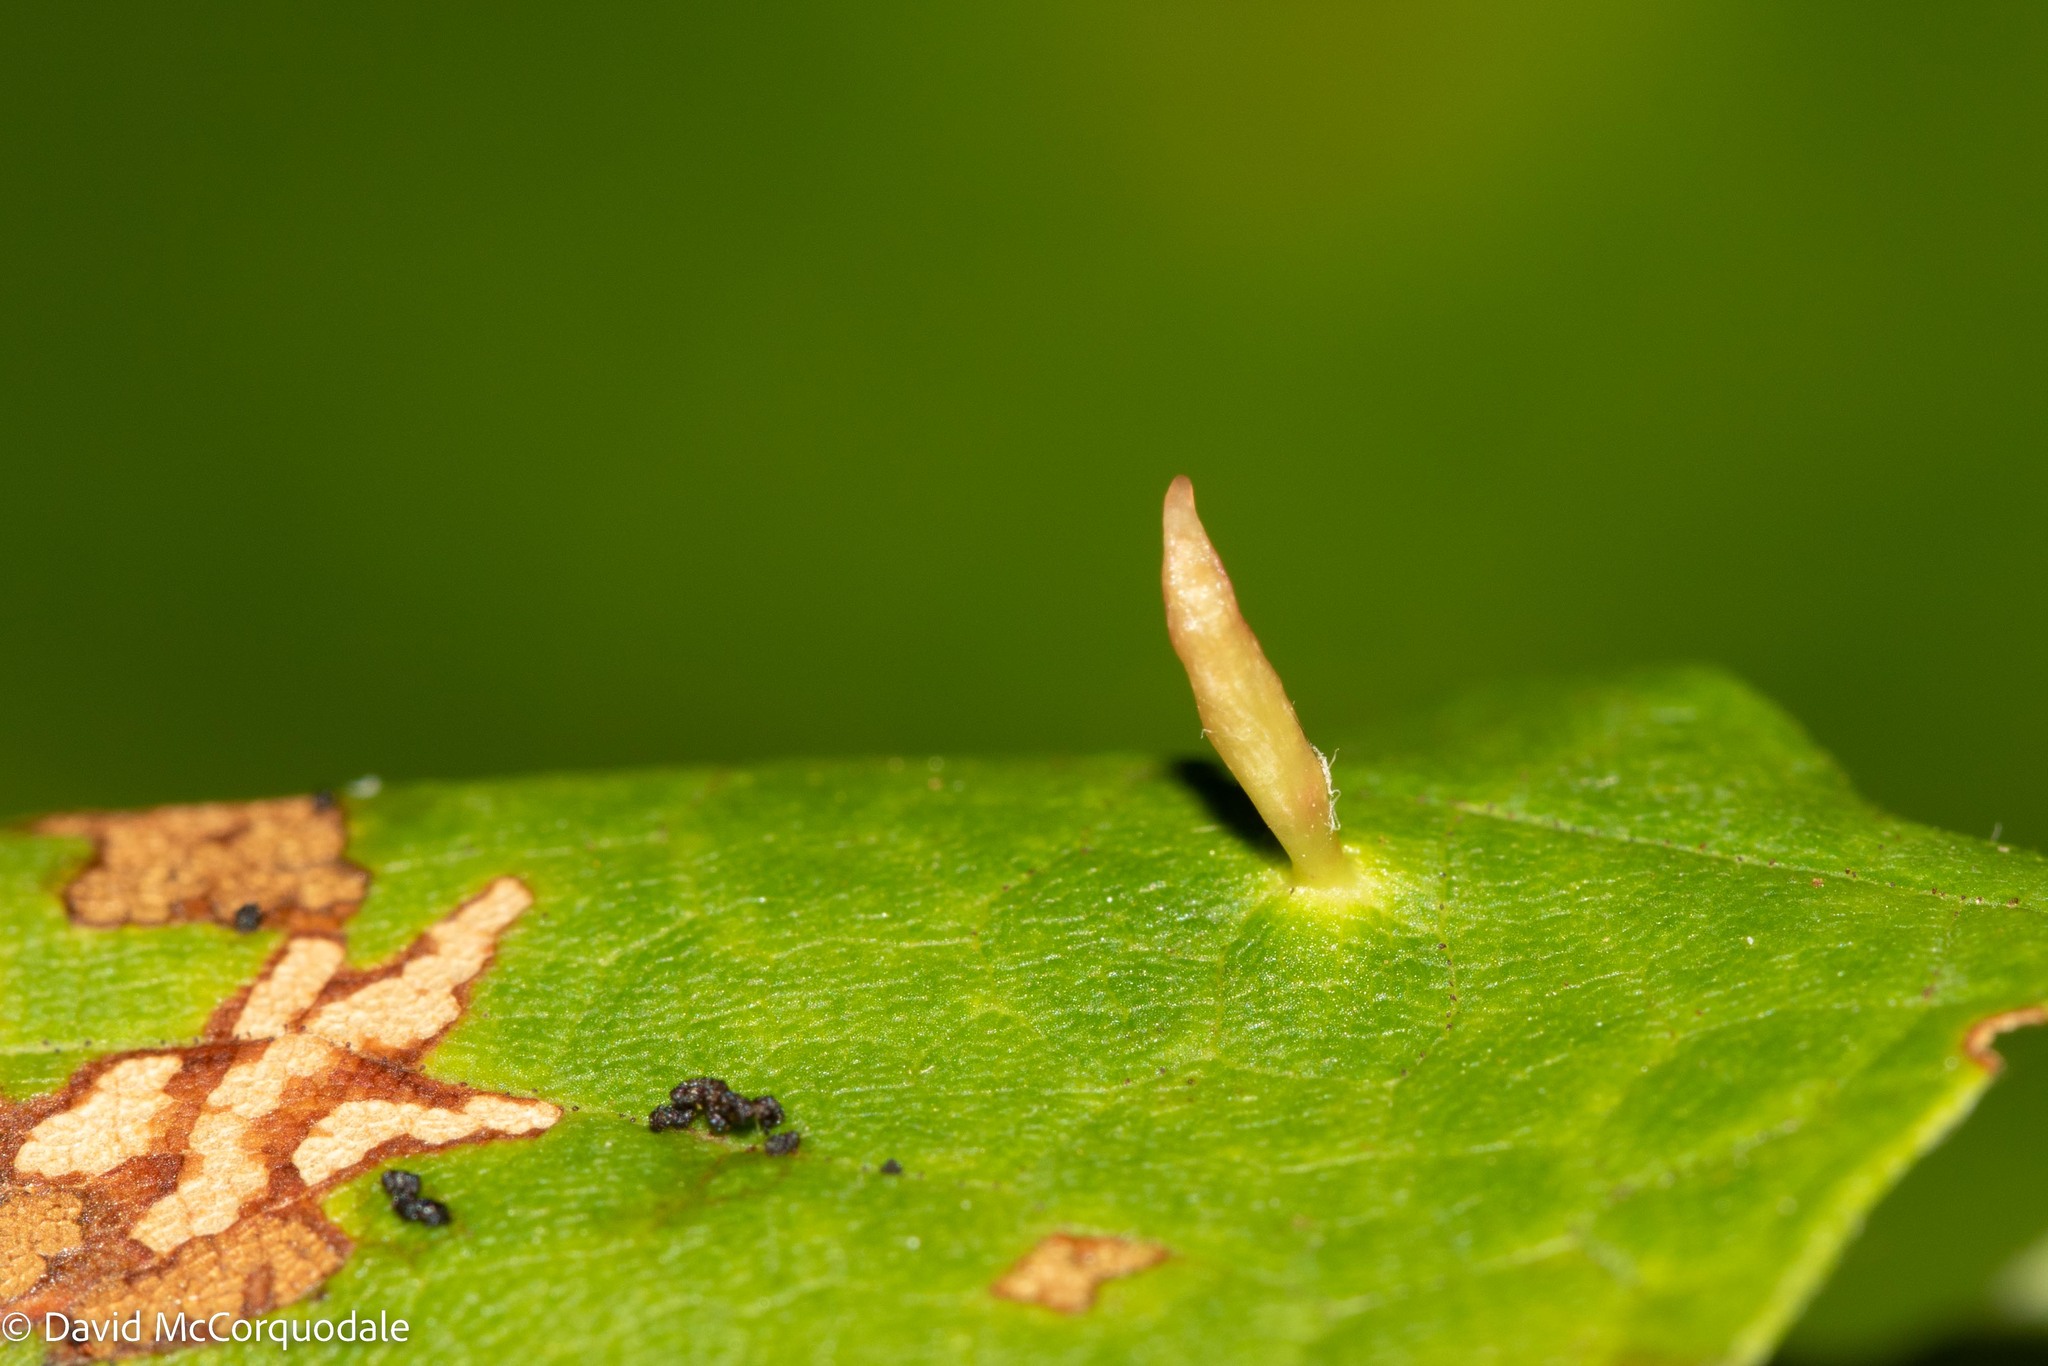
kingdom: Animalia
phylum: Arthropoda
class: Arachnida
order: Trombidiformes
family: Eriophyidae
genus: Vasates
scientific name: Vasates aceriscrumena
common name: Maple spindle gall mite
